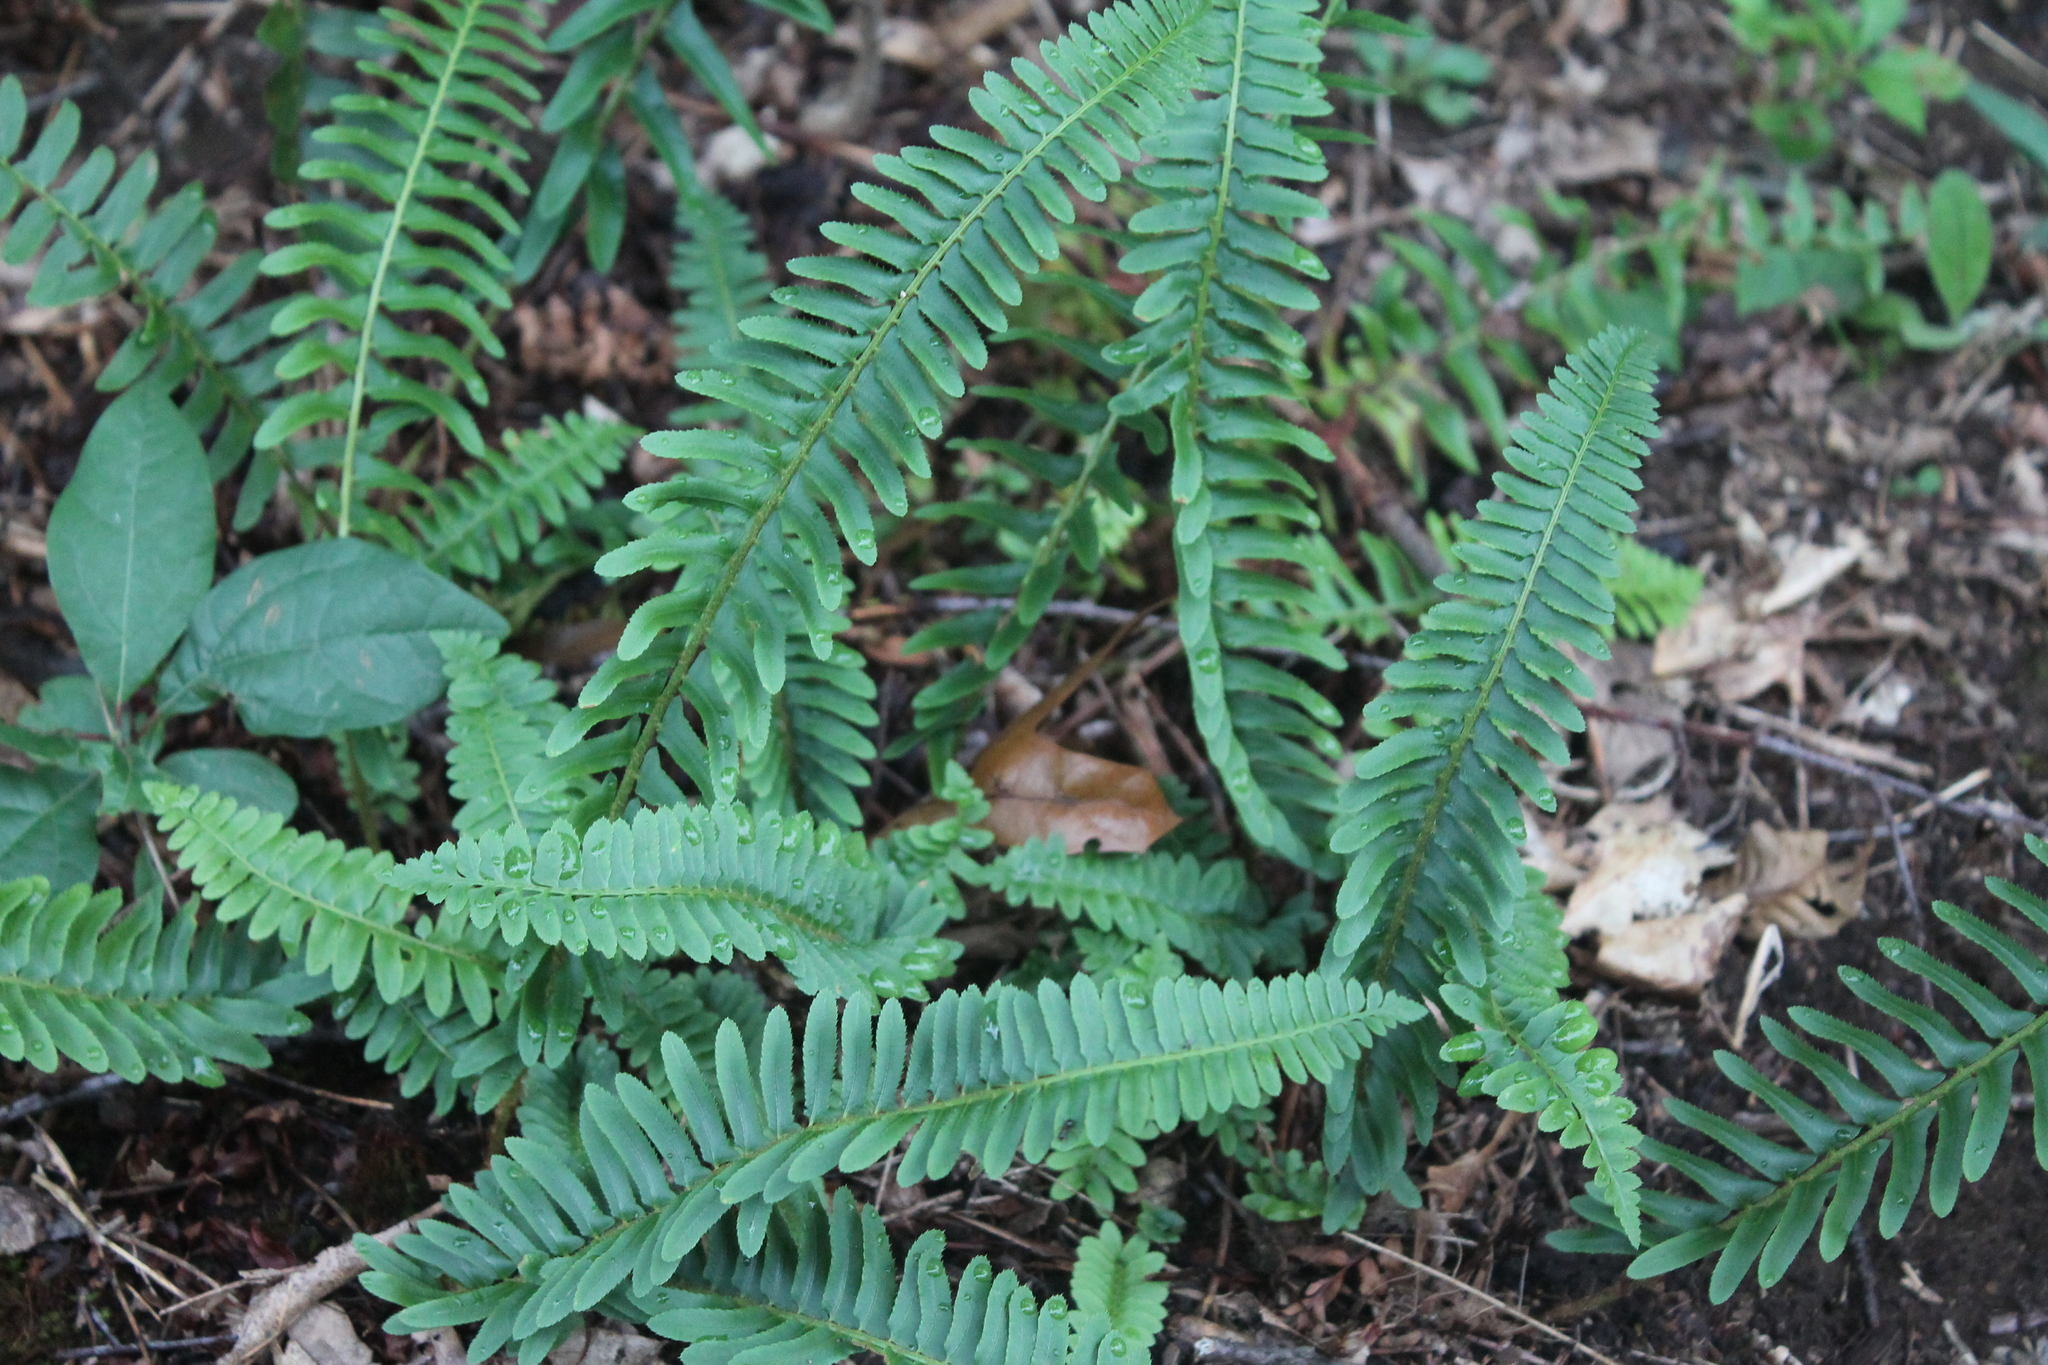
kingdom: Plantae
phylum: Tracheophyta
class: Polypodiopsida
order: Polypodiales
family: Dryopteridaceae
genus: Polystichum
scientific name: Polystichum acrostichoides
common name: Christmas fern
